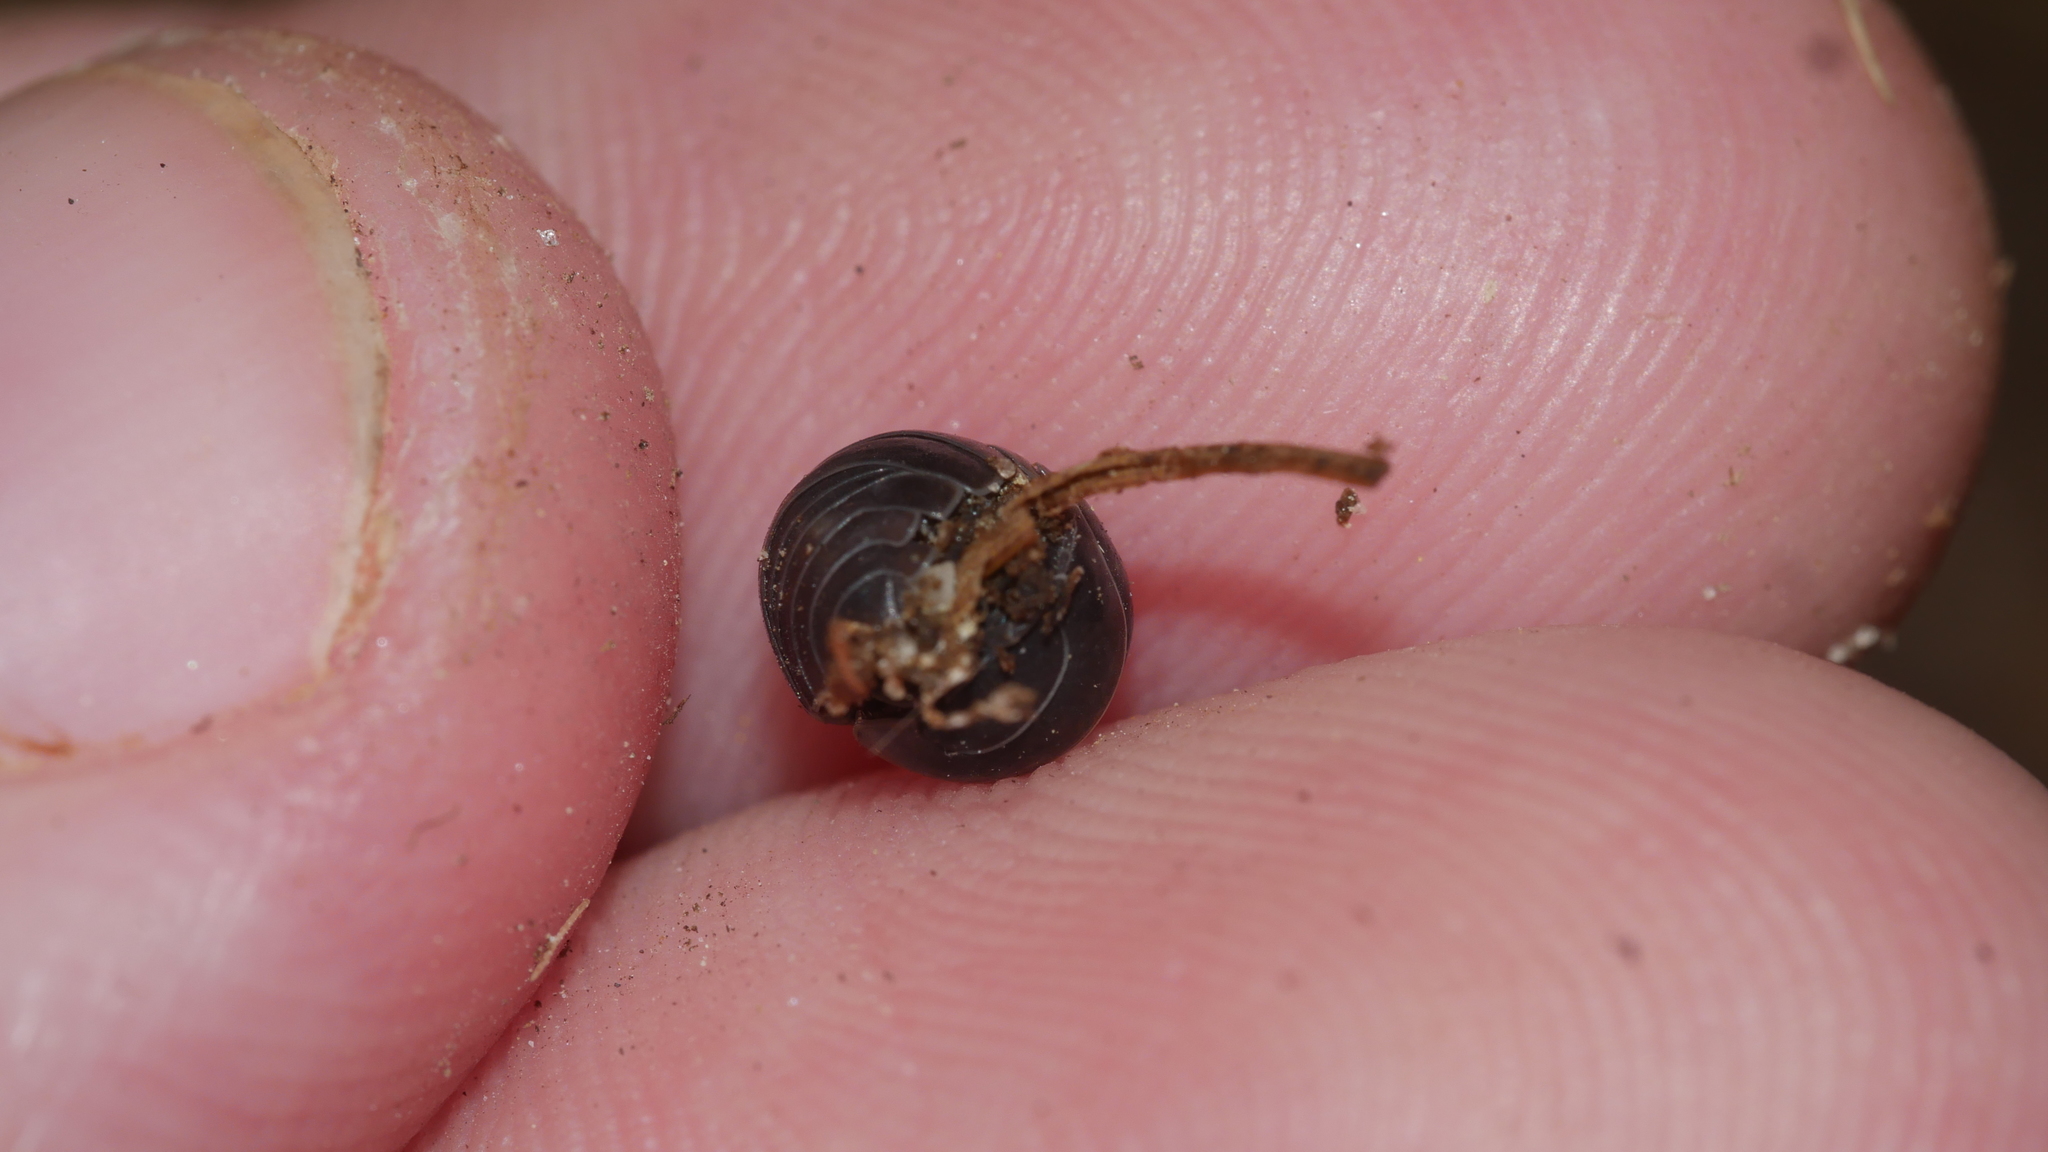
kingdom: Animalia
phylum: Arthropoda
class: Malacostraca
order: Isopoda
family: Armadillidiidae
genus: Armadillidium
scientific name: Armadillidium vulgare
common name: Common pill woodlouse
